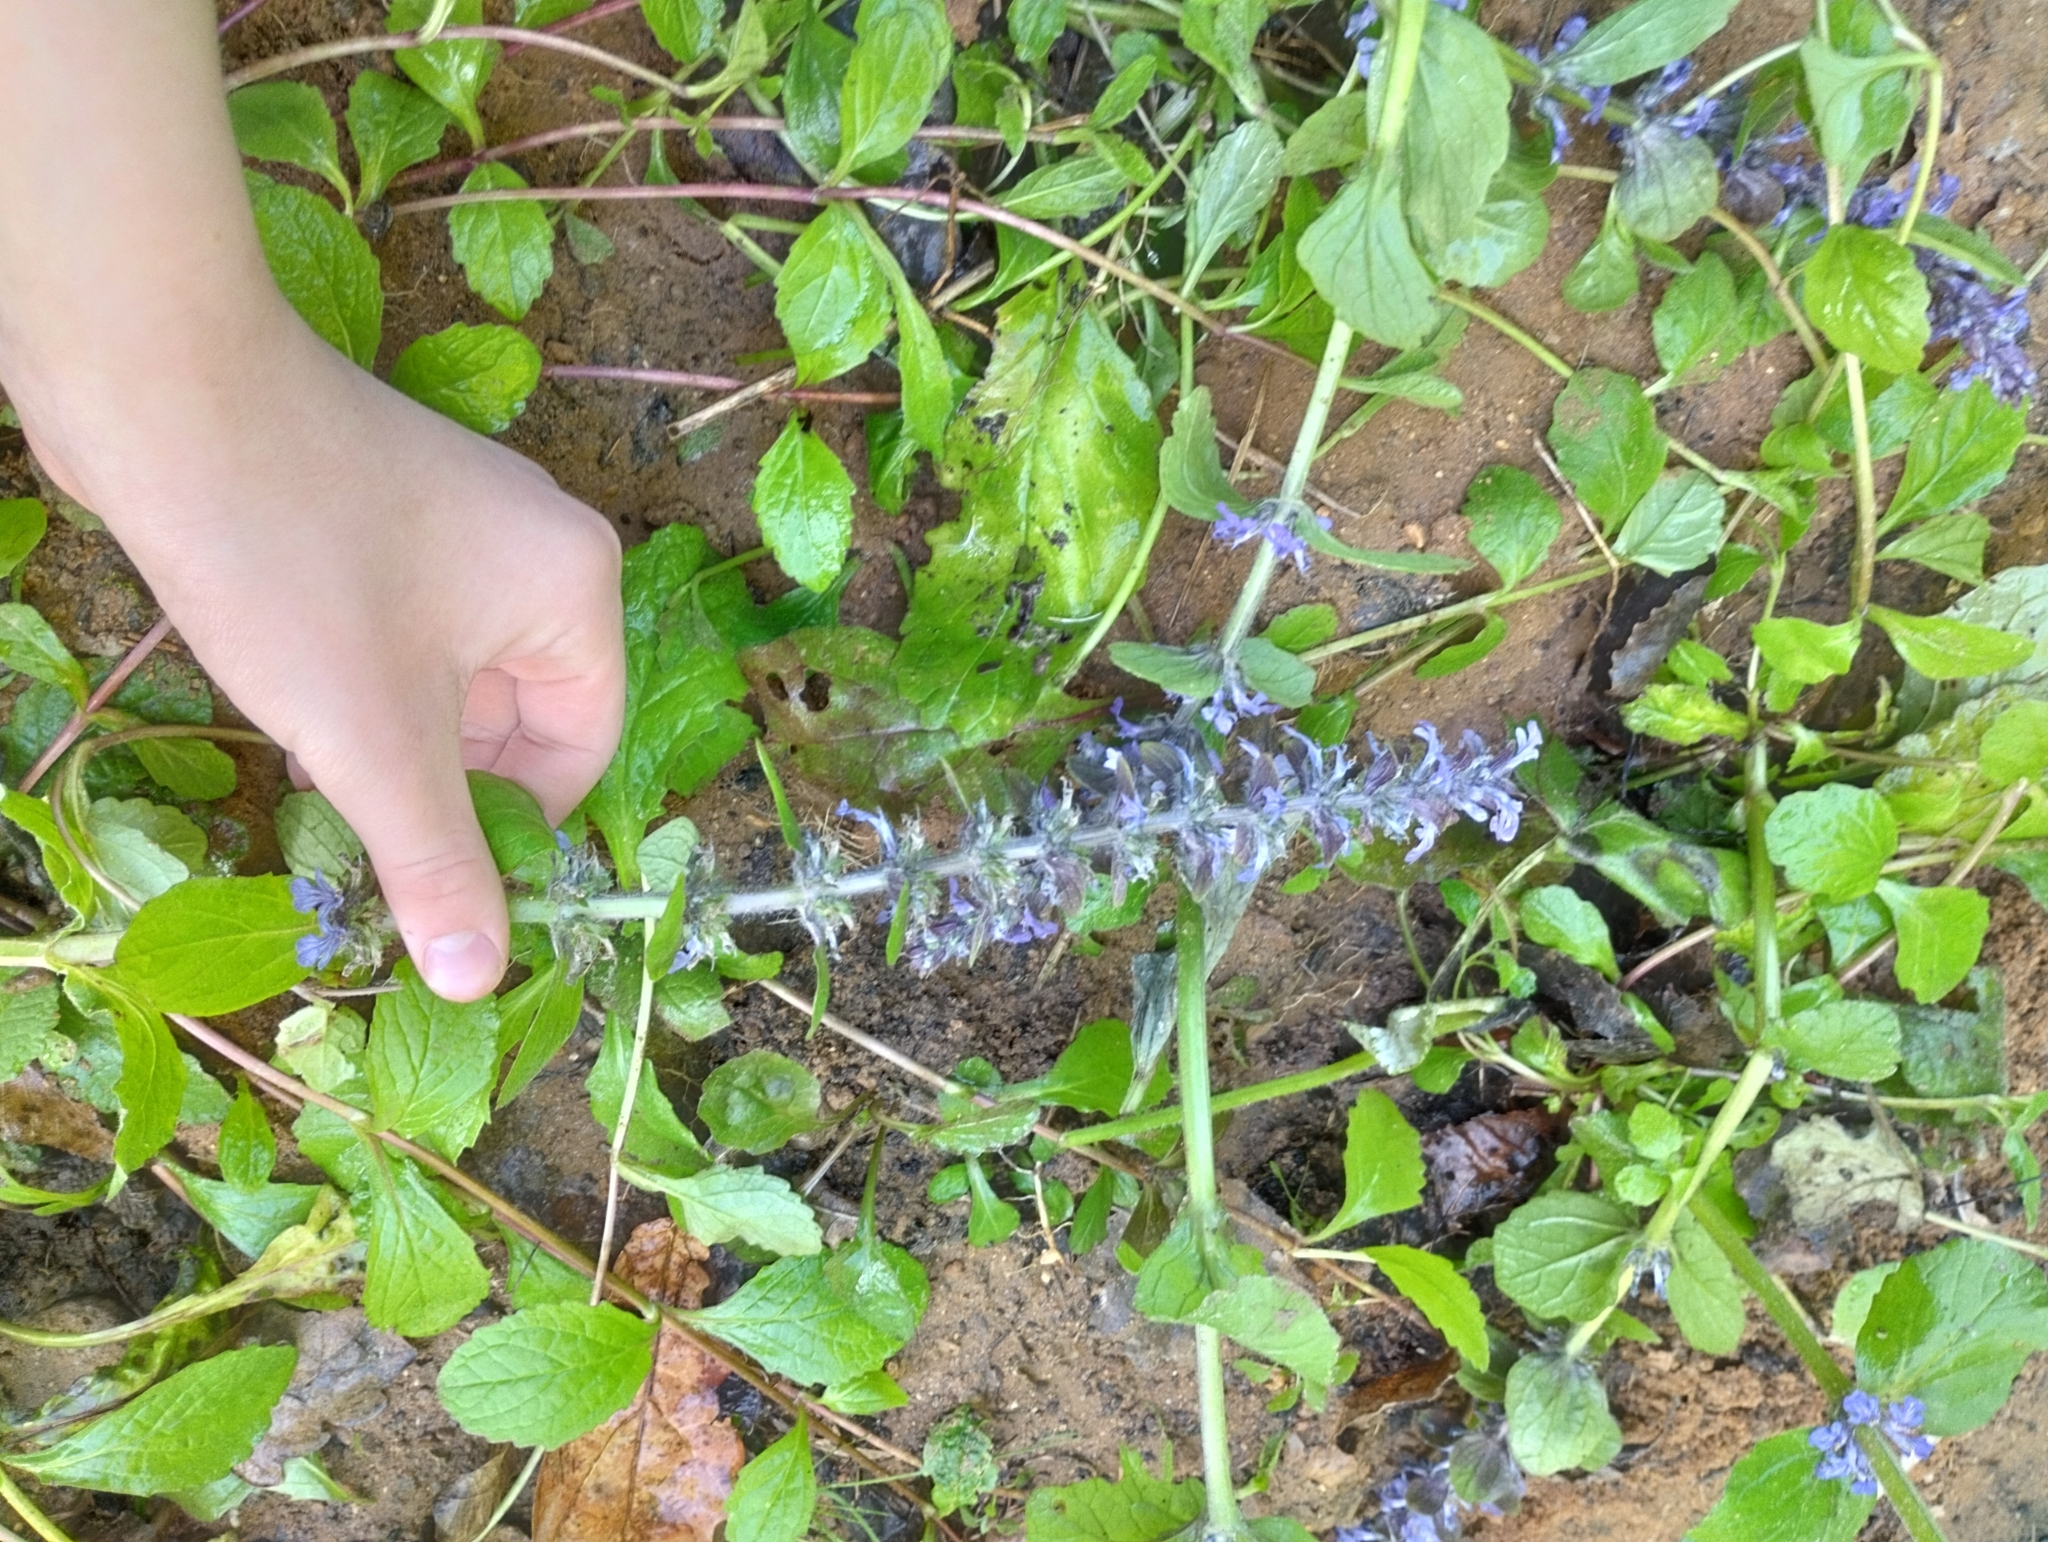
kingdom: Plantae
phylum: Tracheophyta
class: Magnoliopsida
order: Lamiales
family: Lamiaceae
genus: Ajuga
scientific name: Ajuga reptans
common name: Bugle
